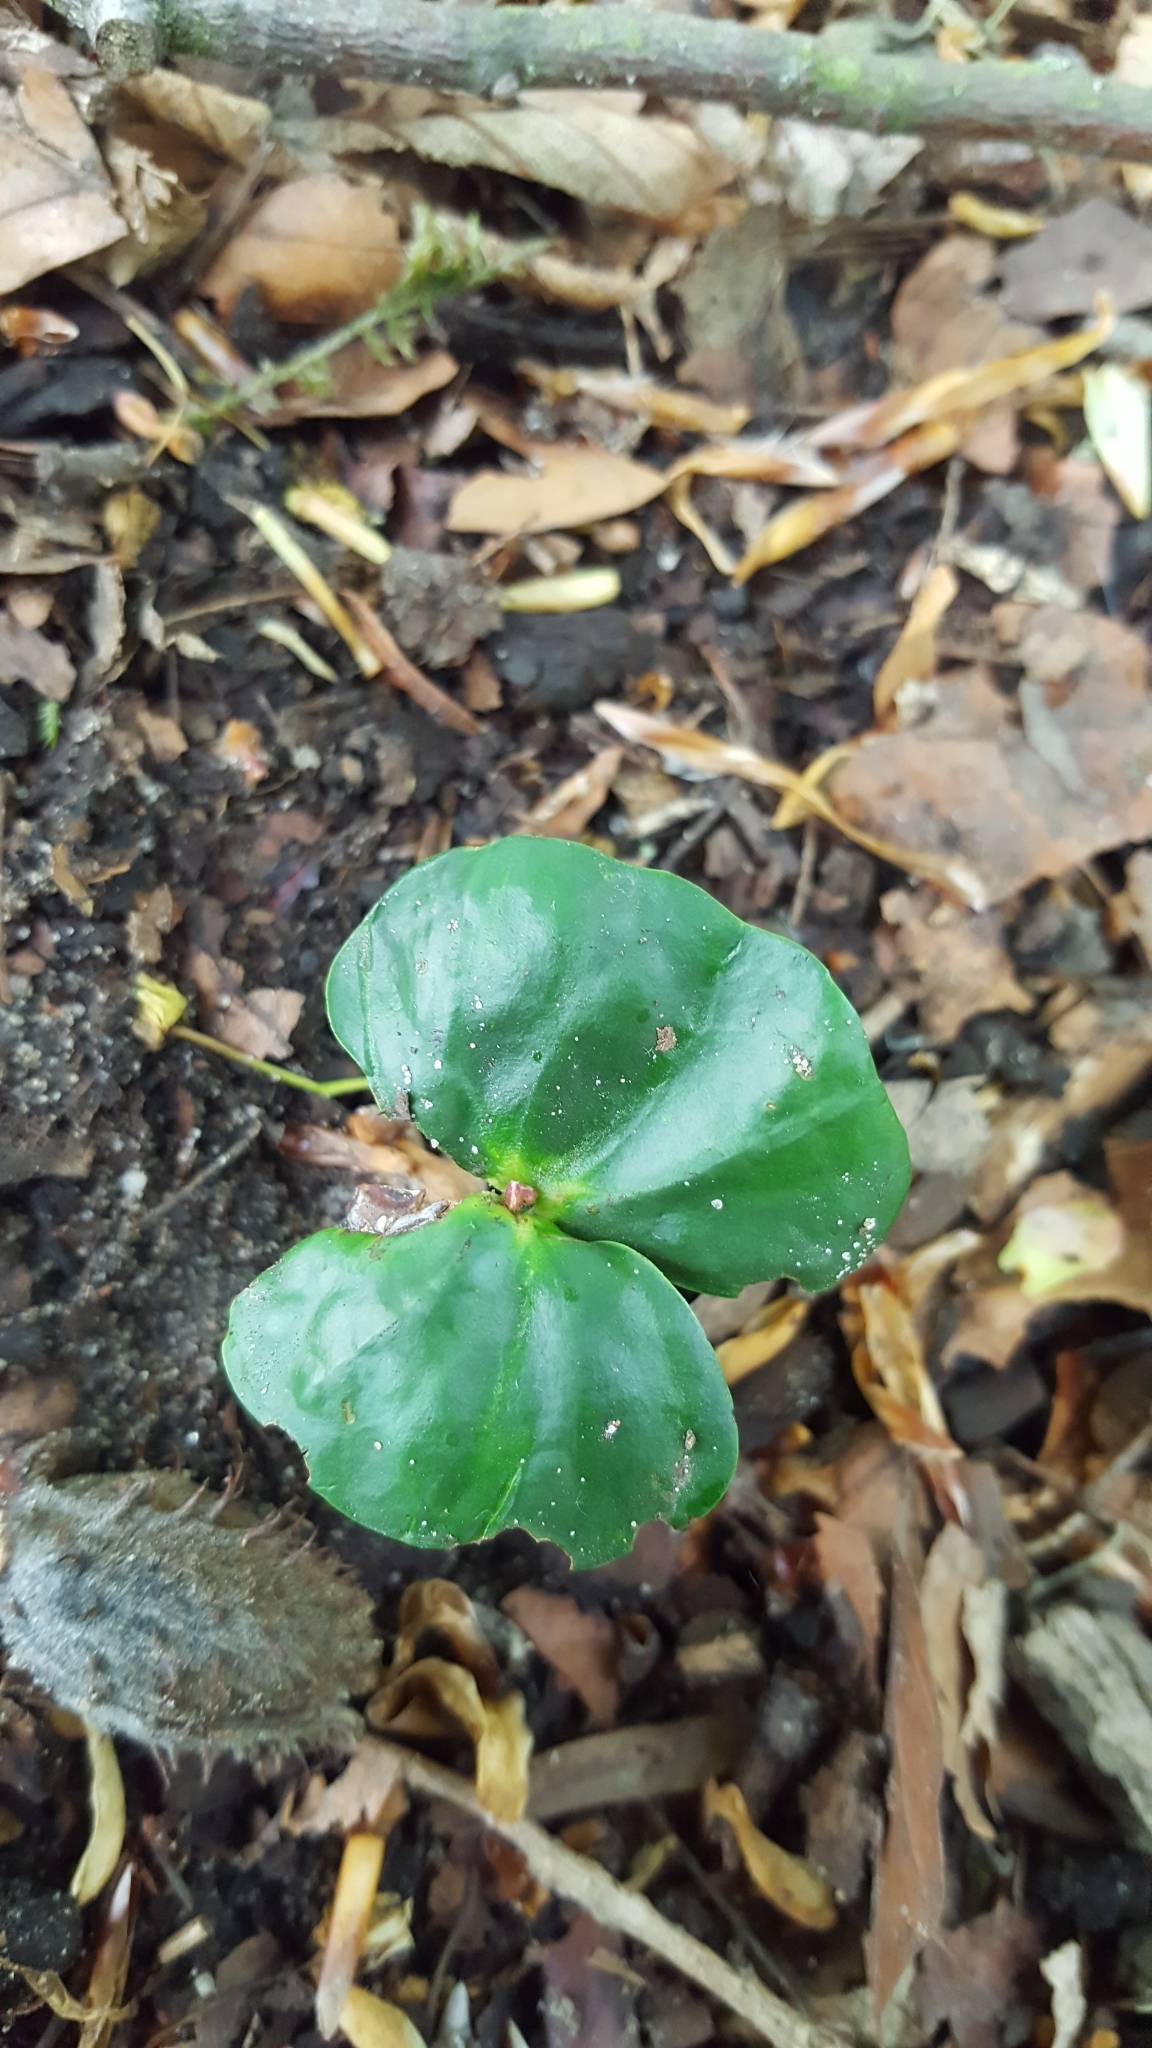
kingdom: Plantae
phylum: Tracheophyta
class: Magnoliopsida
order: Fagales
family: Fagaceae
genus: Fagus
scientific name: Fagus sylvatica
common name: Beech
